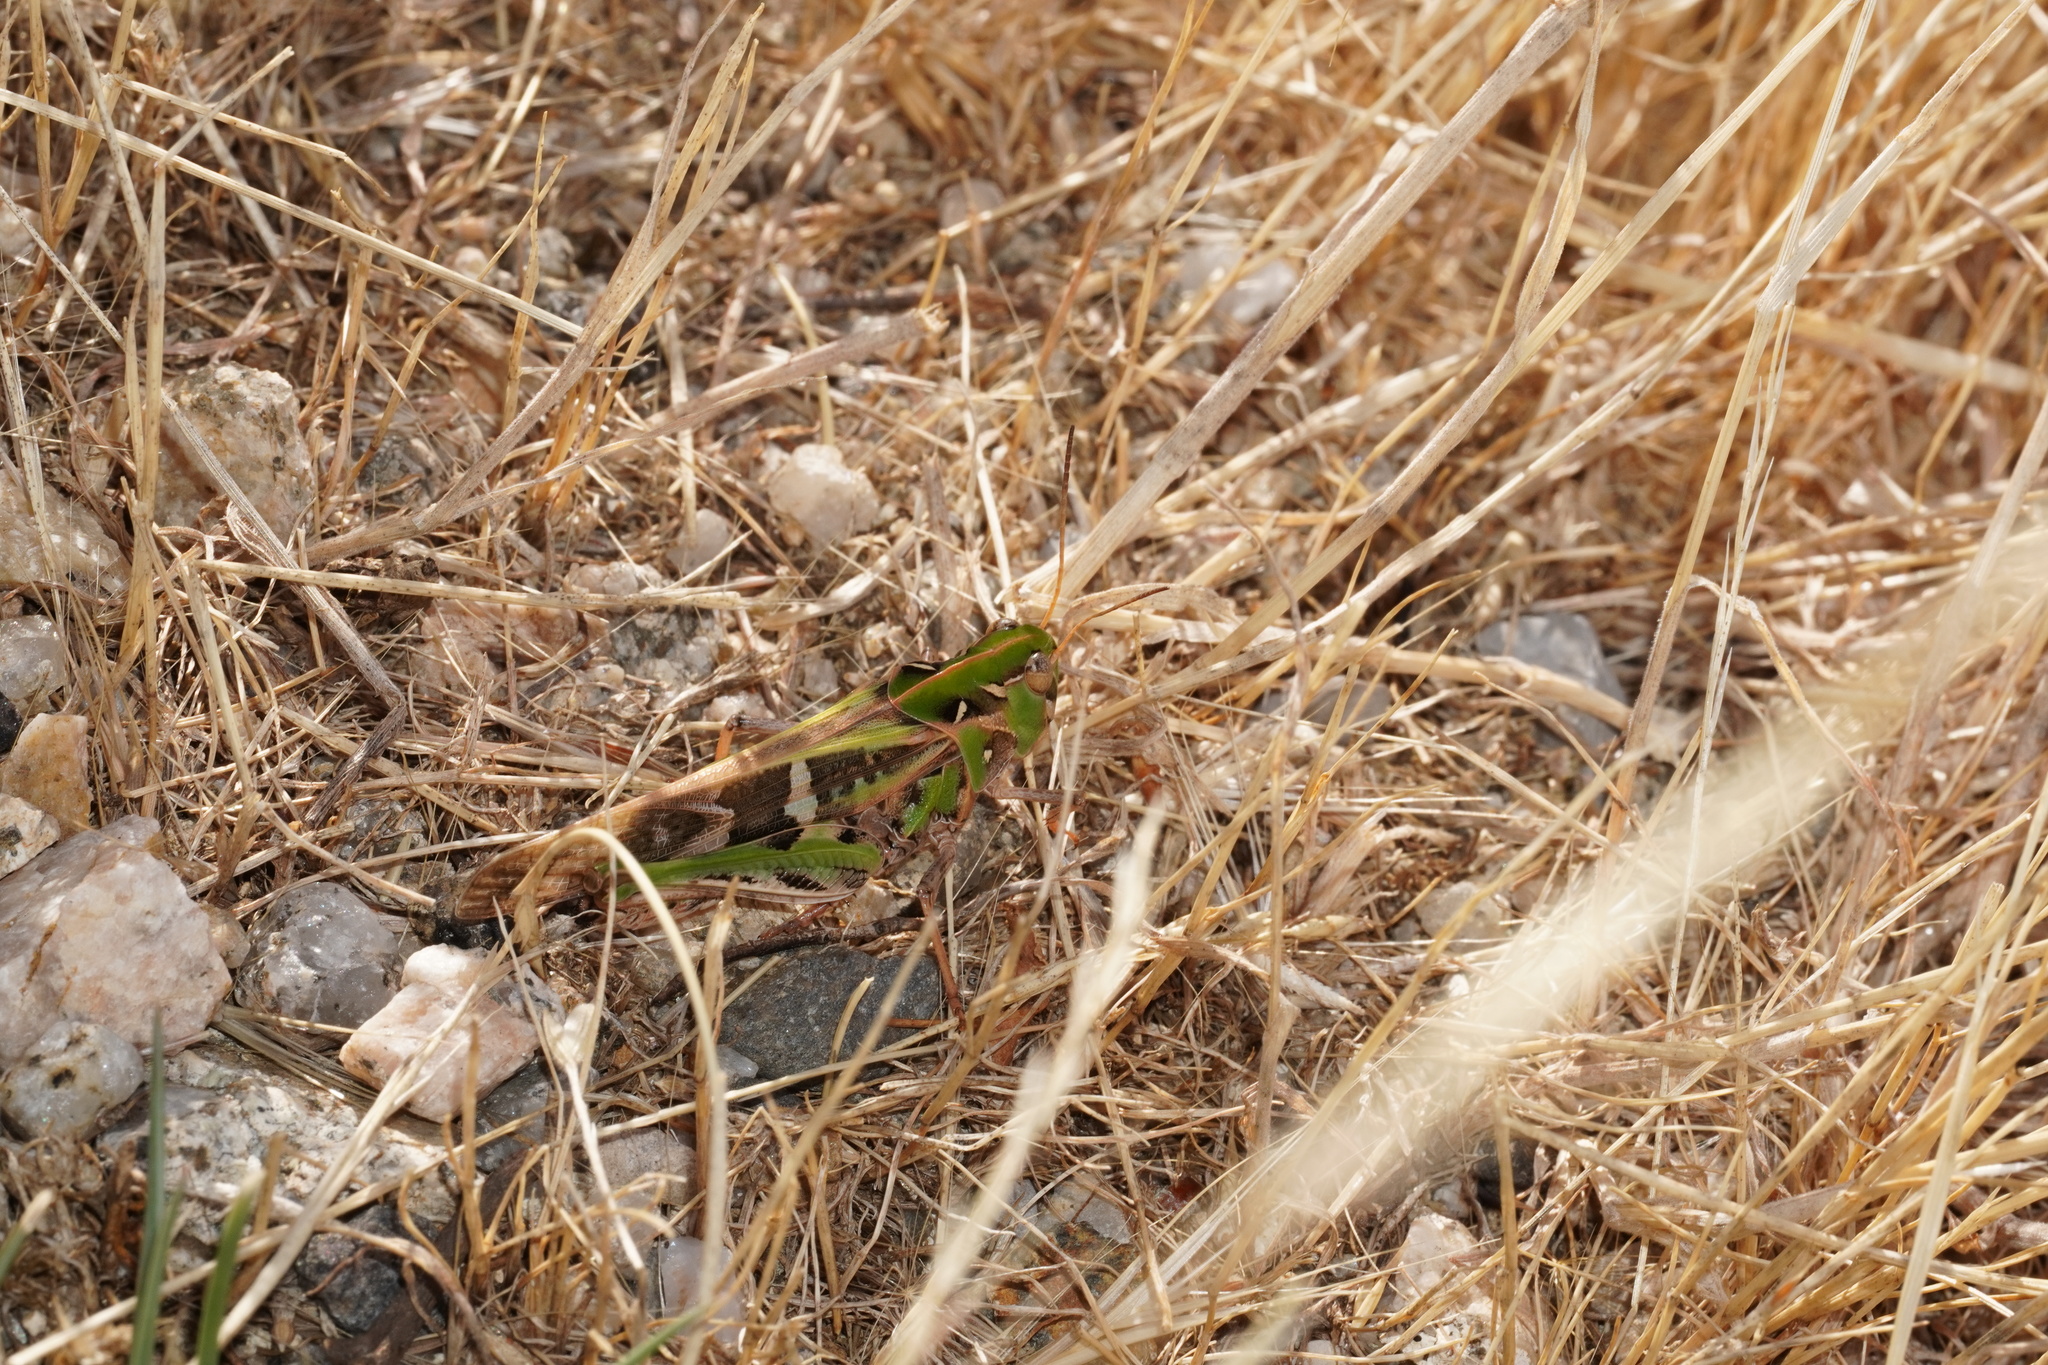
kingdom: Animalia
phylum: Arthropoda
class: Insecta
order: Orthoptera
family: Acrididae
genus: Oedaleus
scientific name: Oedaleus decorus
